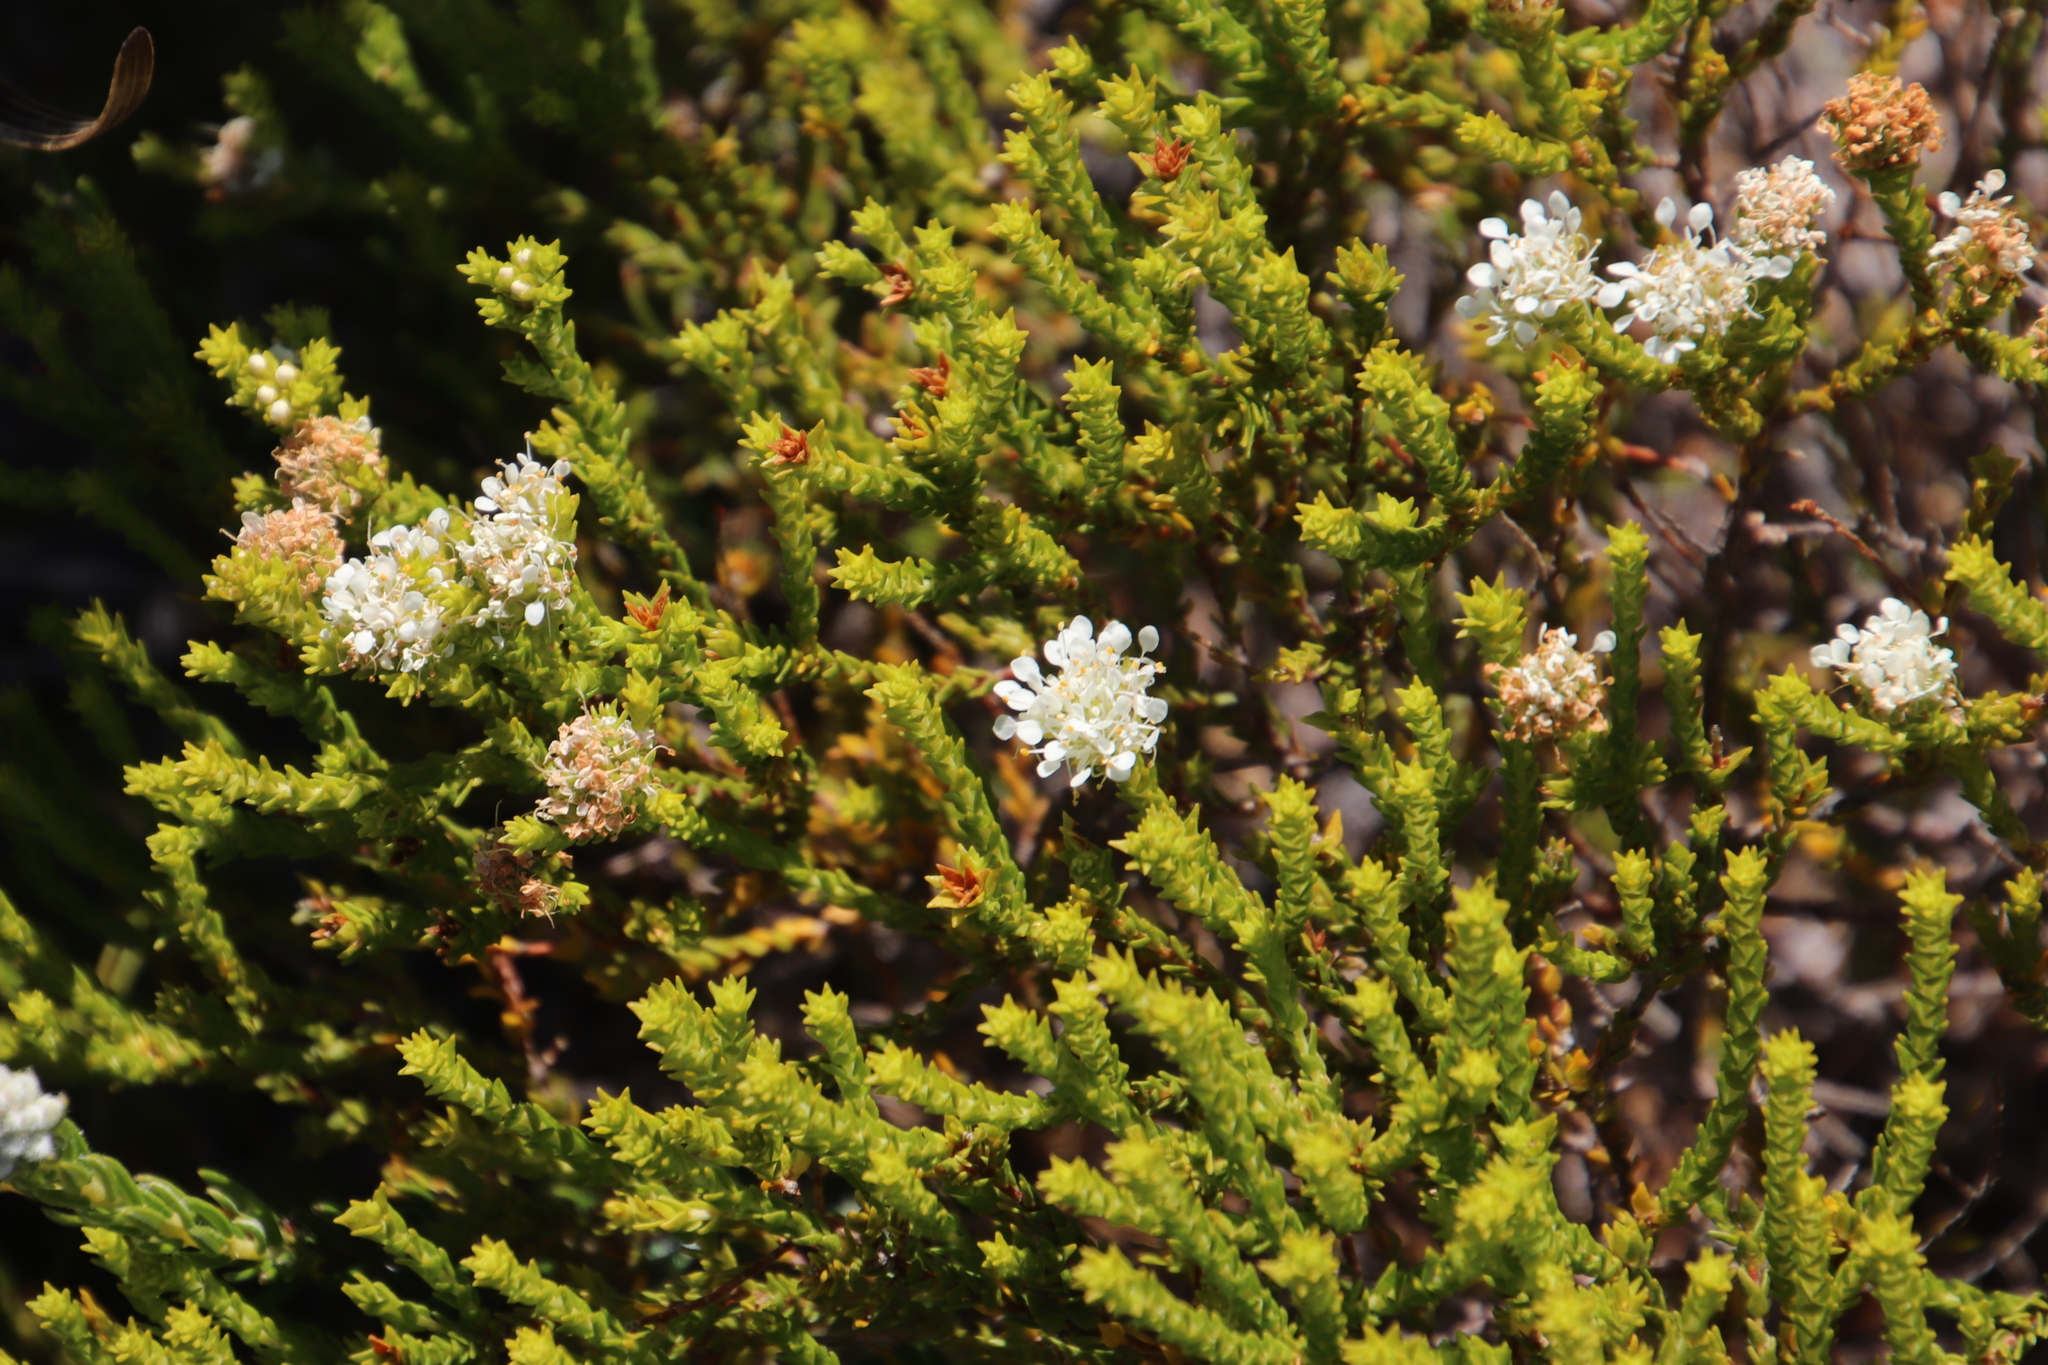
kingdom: Plantae
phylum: Tracheophyta
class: Magnoliopsida
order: Sapindales
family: Rutaceae
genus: Agathosma
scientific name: Agathosma imbricata
